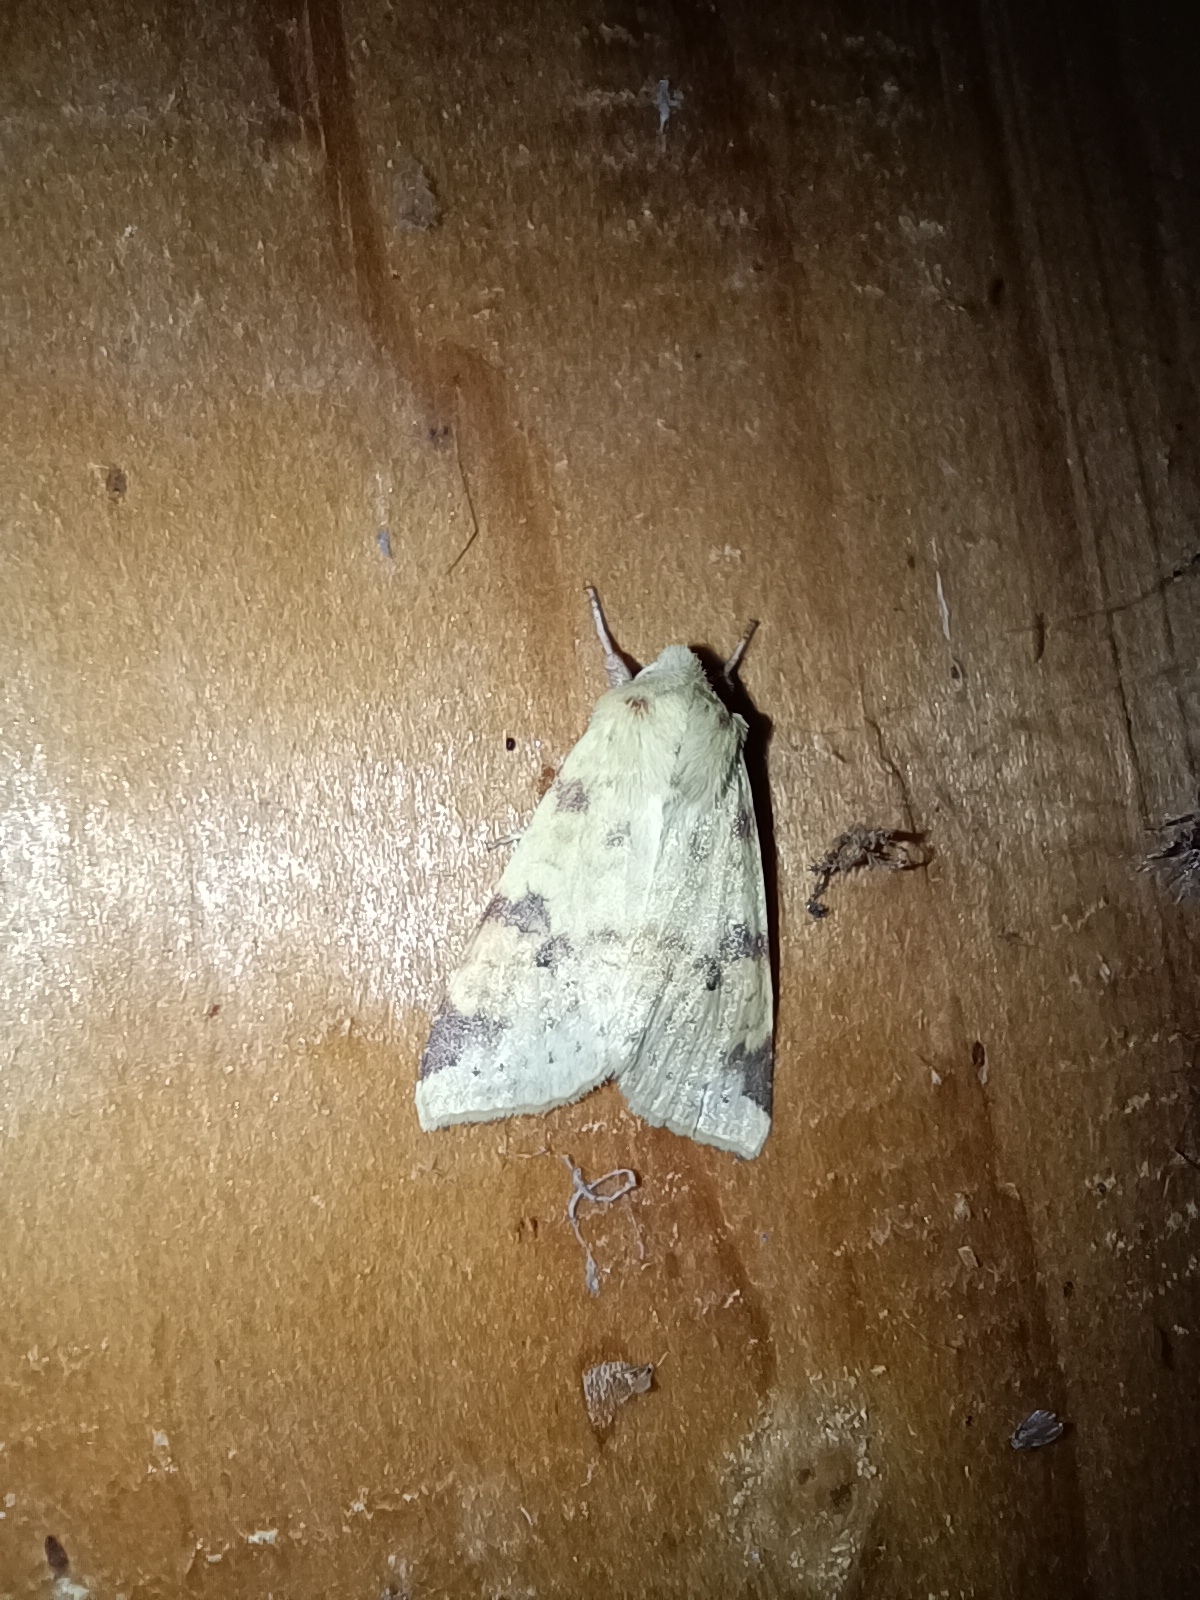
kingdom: Animalia
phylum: Arthropoda
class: Insecta
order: Lepidoptera
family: Noctuidae
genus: Xanthia
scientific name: Xanthia icteritia
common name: The sallow
